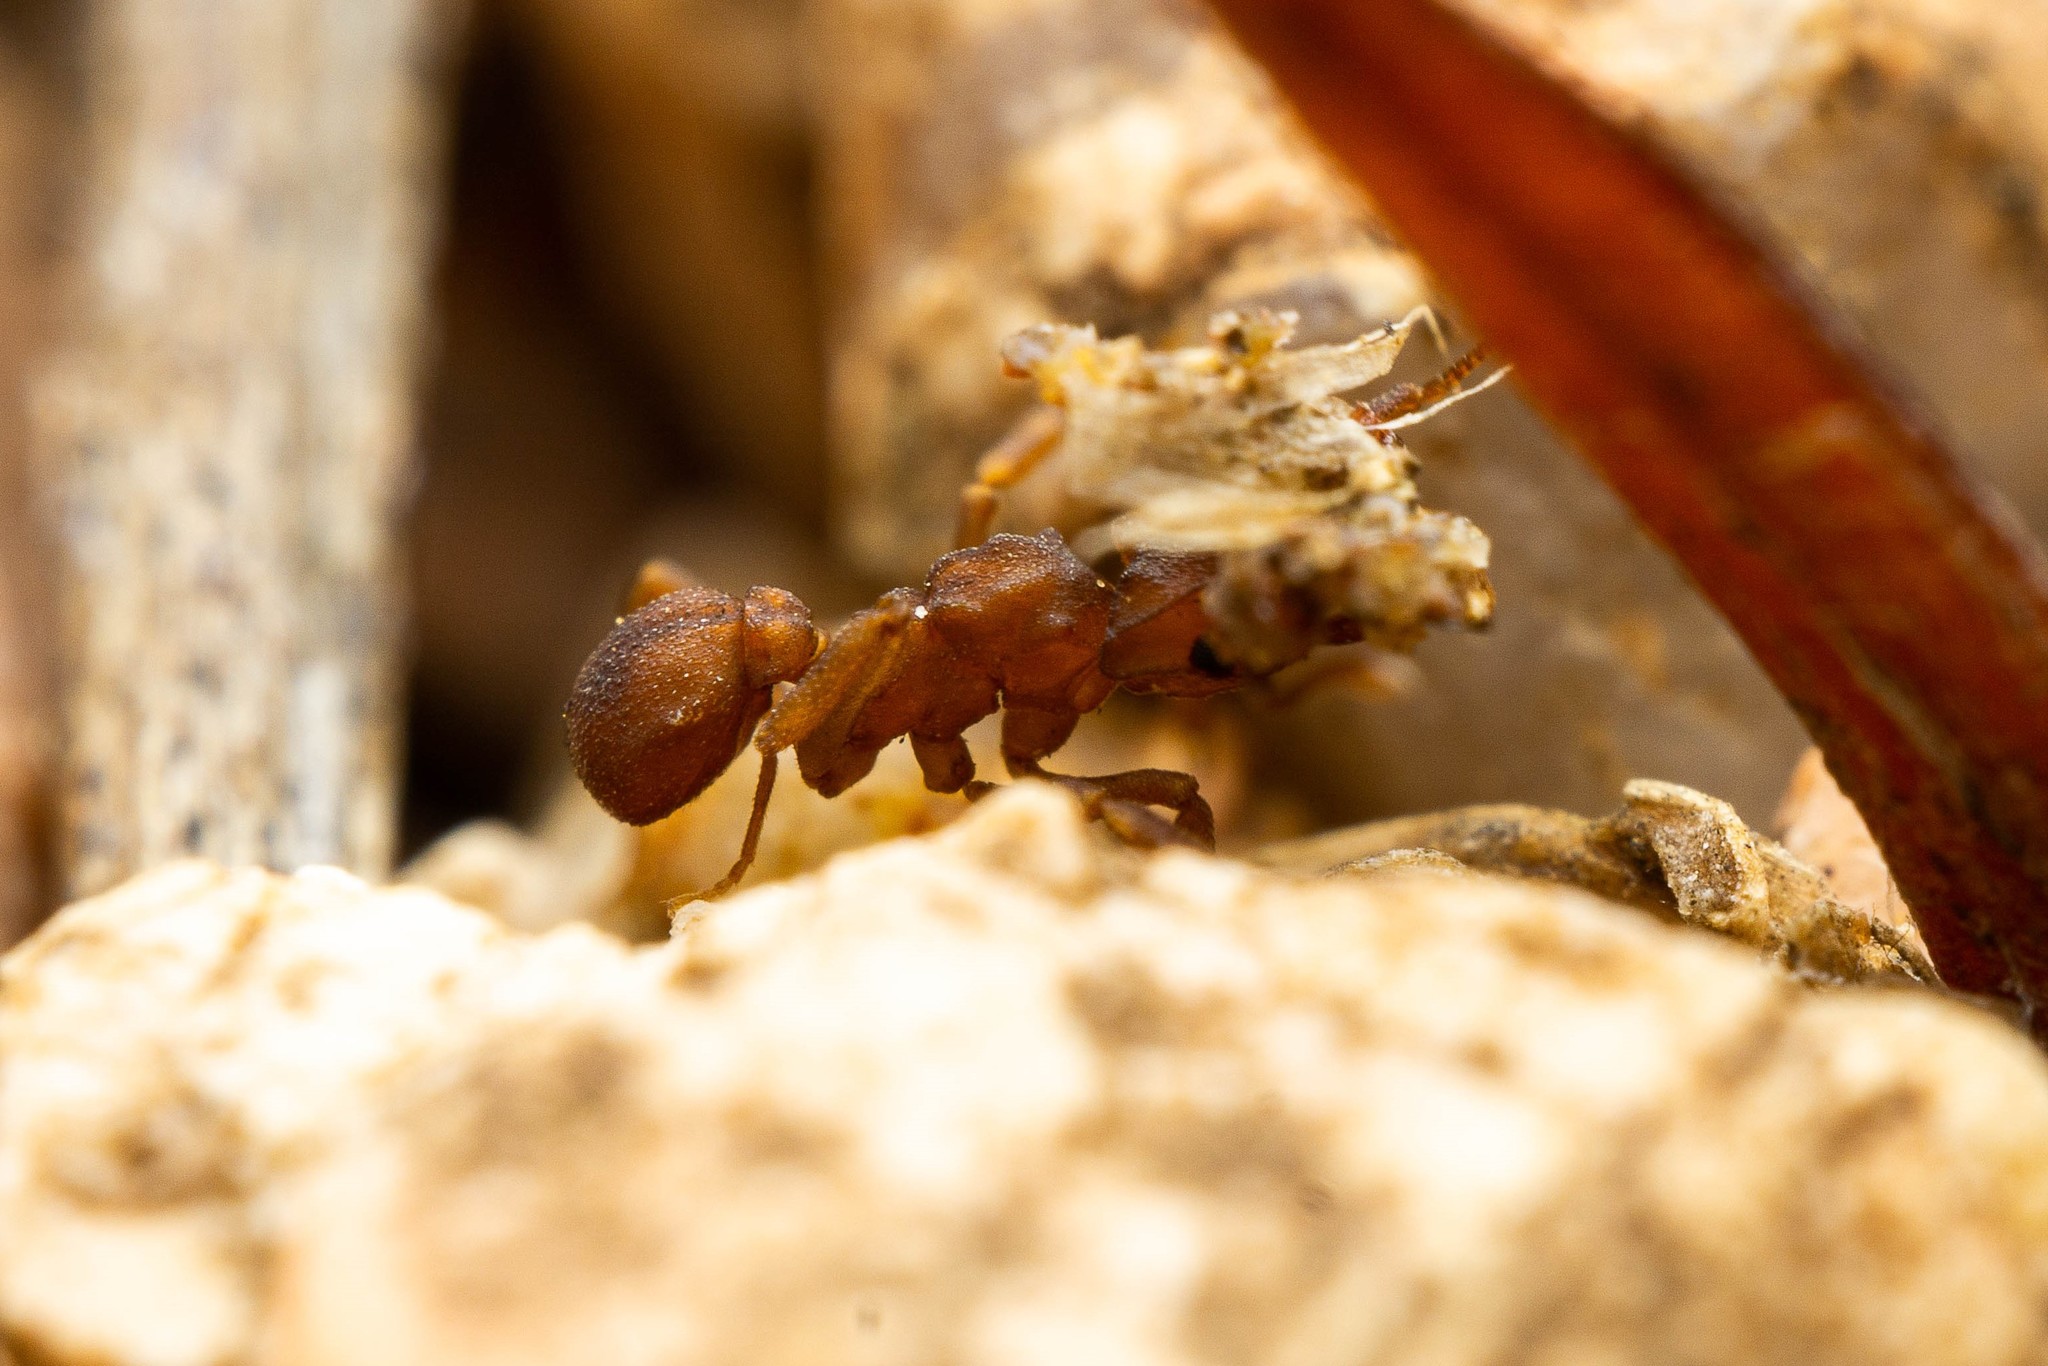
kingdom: Animalia
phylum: Arthropoda
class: Insecta
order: Hymenoptera
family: Formicidae
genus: Cyphomyrmex
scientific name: Cyphomyrmex flavidus
